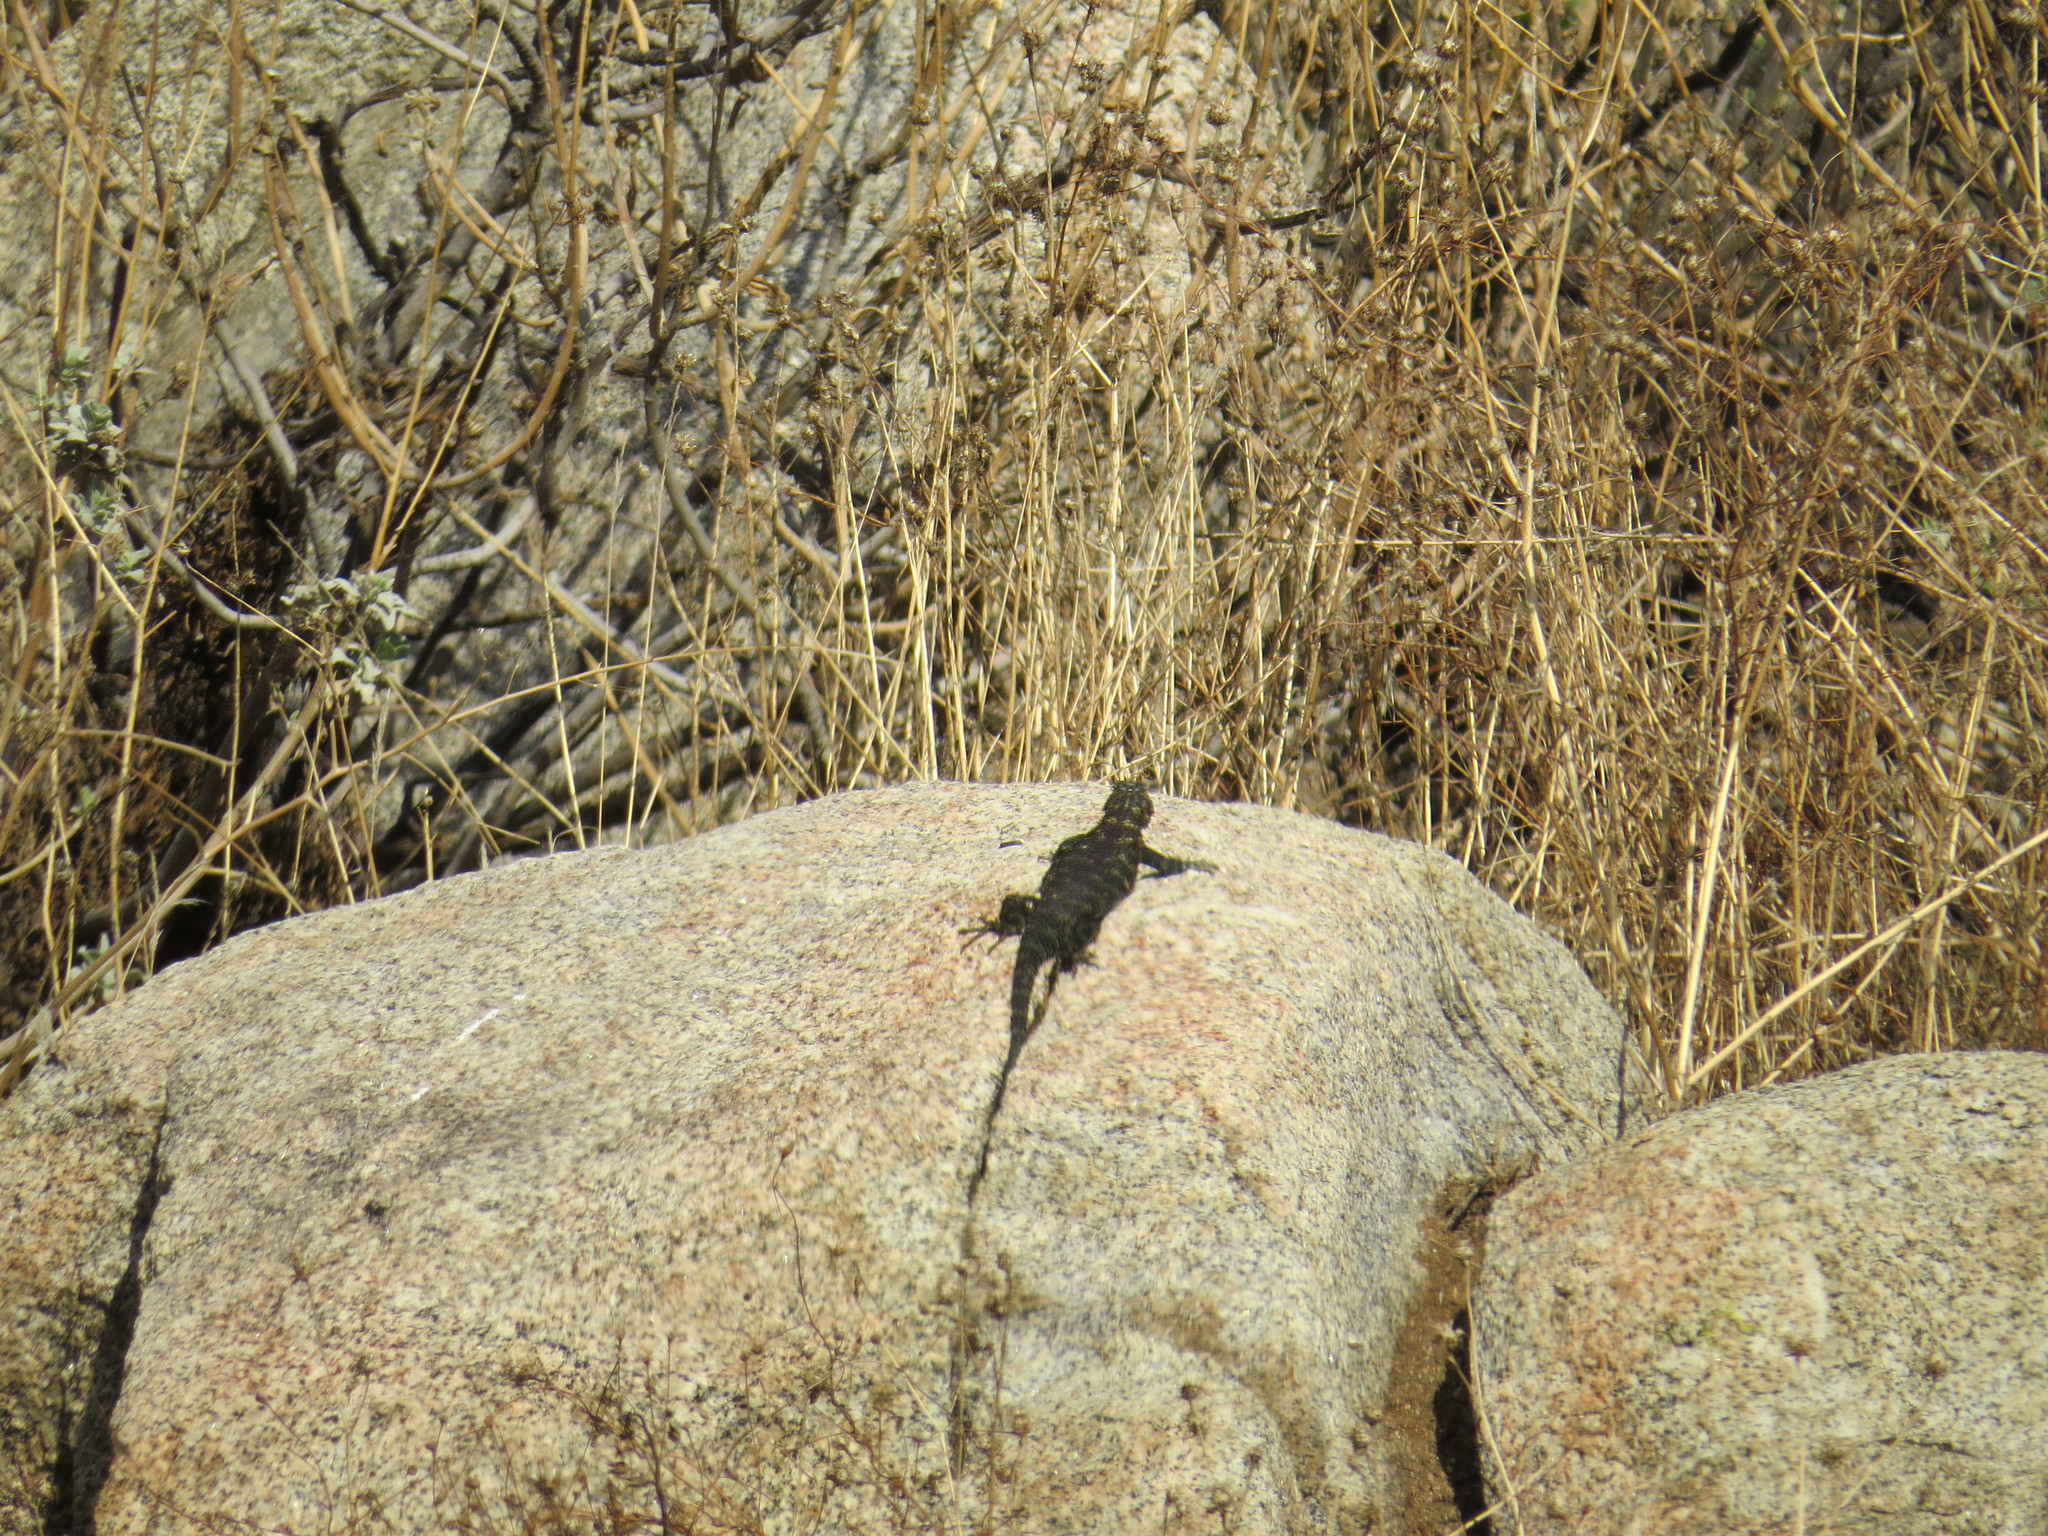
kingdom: Animalia
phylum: Chordata
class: Squamata
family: Phrynosomatidae
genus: Sceloporus
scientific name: Sceloporus orcutti
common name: Granite spiny lizard
